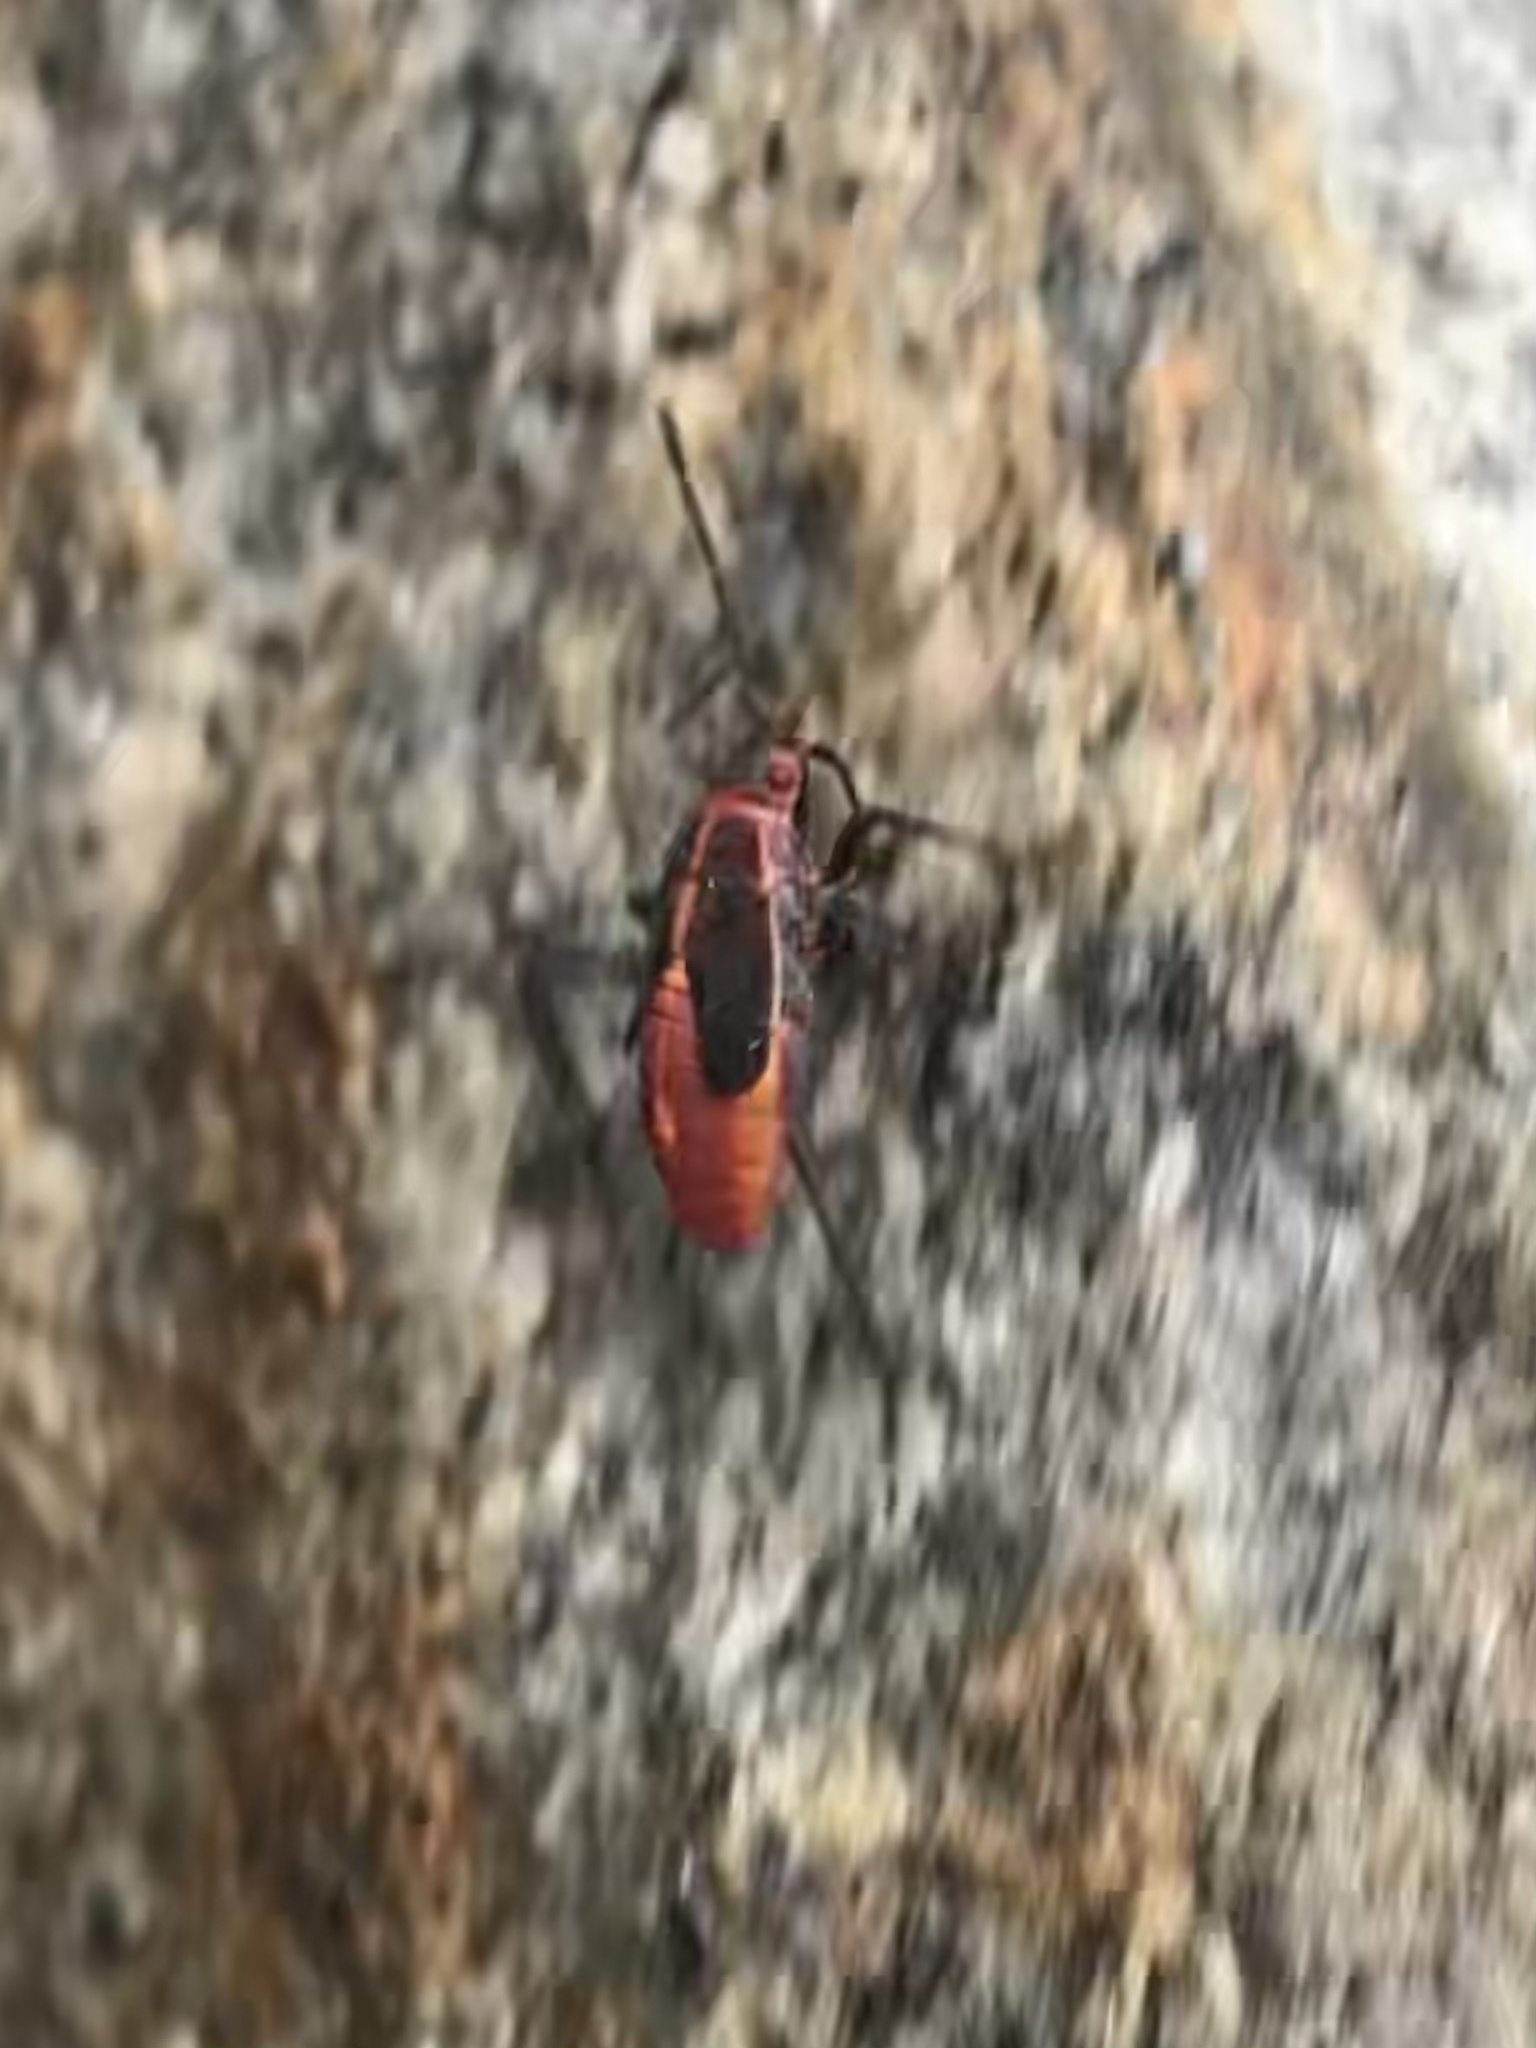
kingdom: Animalia
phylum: Arthropoda
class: Insecta
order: Hemiptera
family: Rhopalidae
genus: Boisea
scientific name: Boisea trivittata
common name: Boxelder bug
